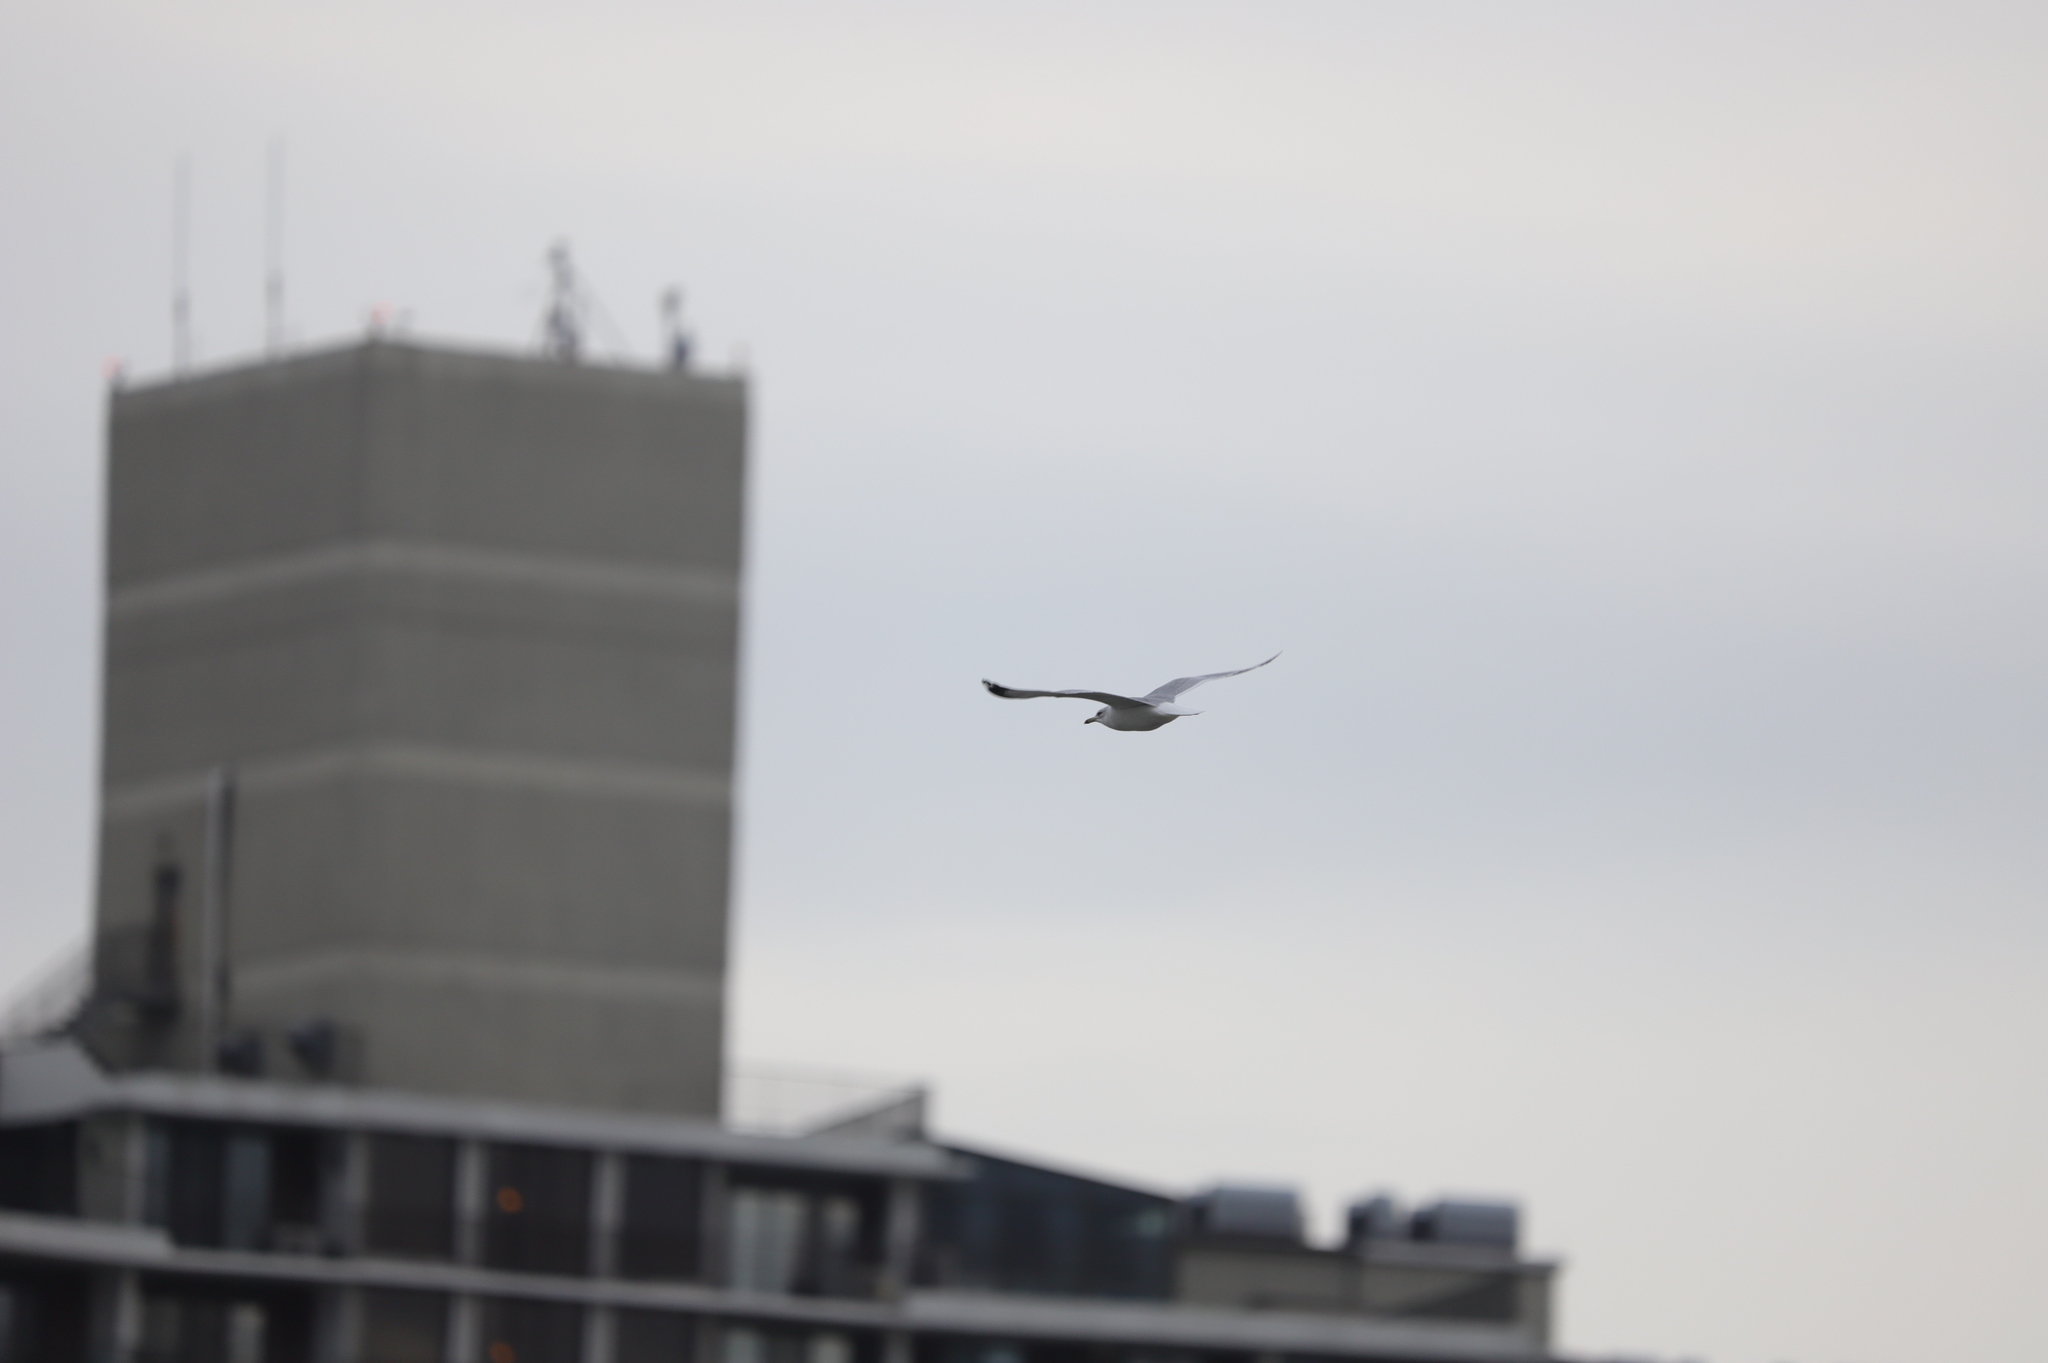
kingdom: Animalia
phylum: Chordata
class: Aves
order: Charadriiformes
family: Laridae
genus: Larus
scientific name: Larus delawarensis
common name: Ring-billed gull
